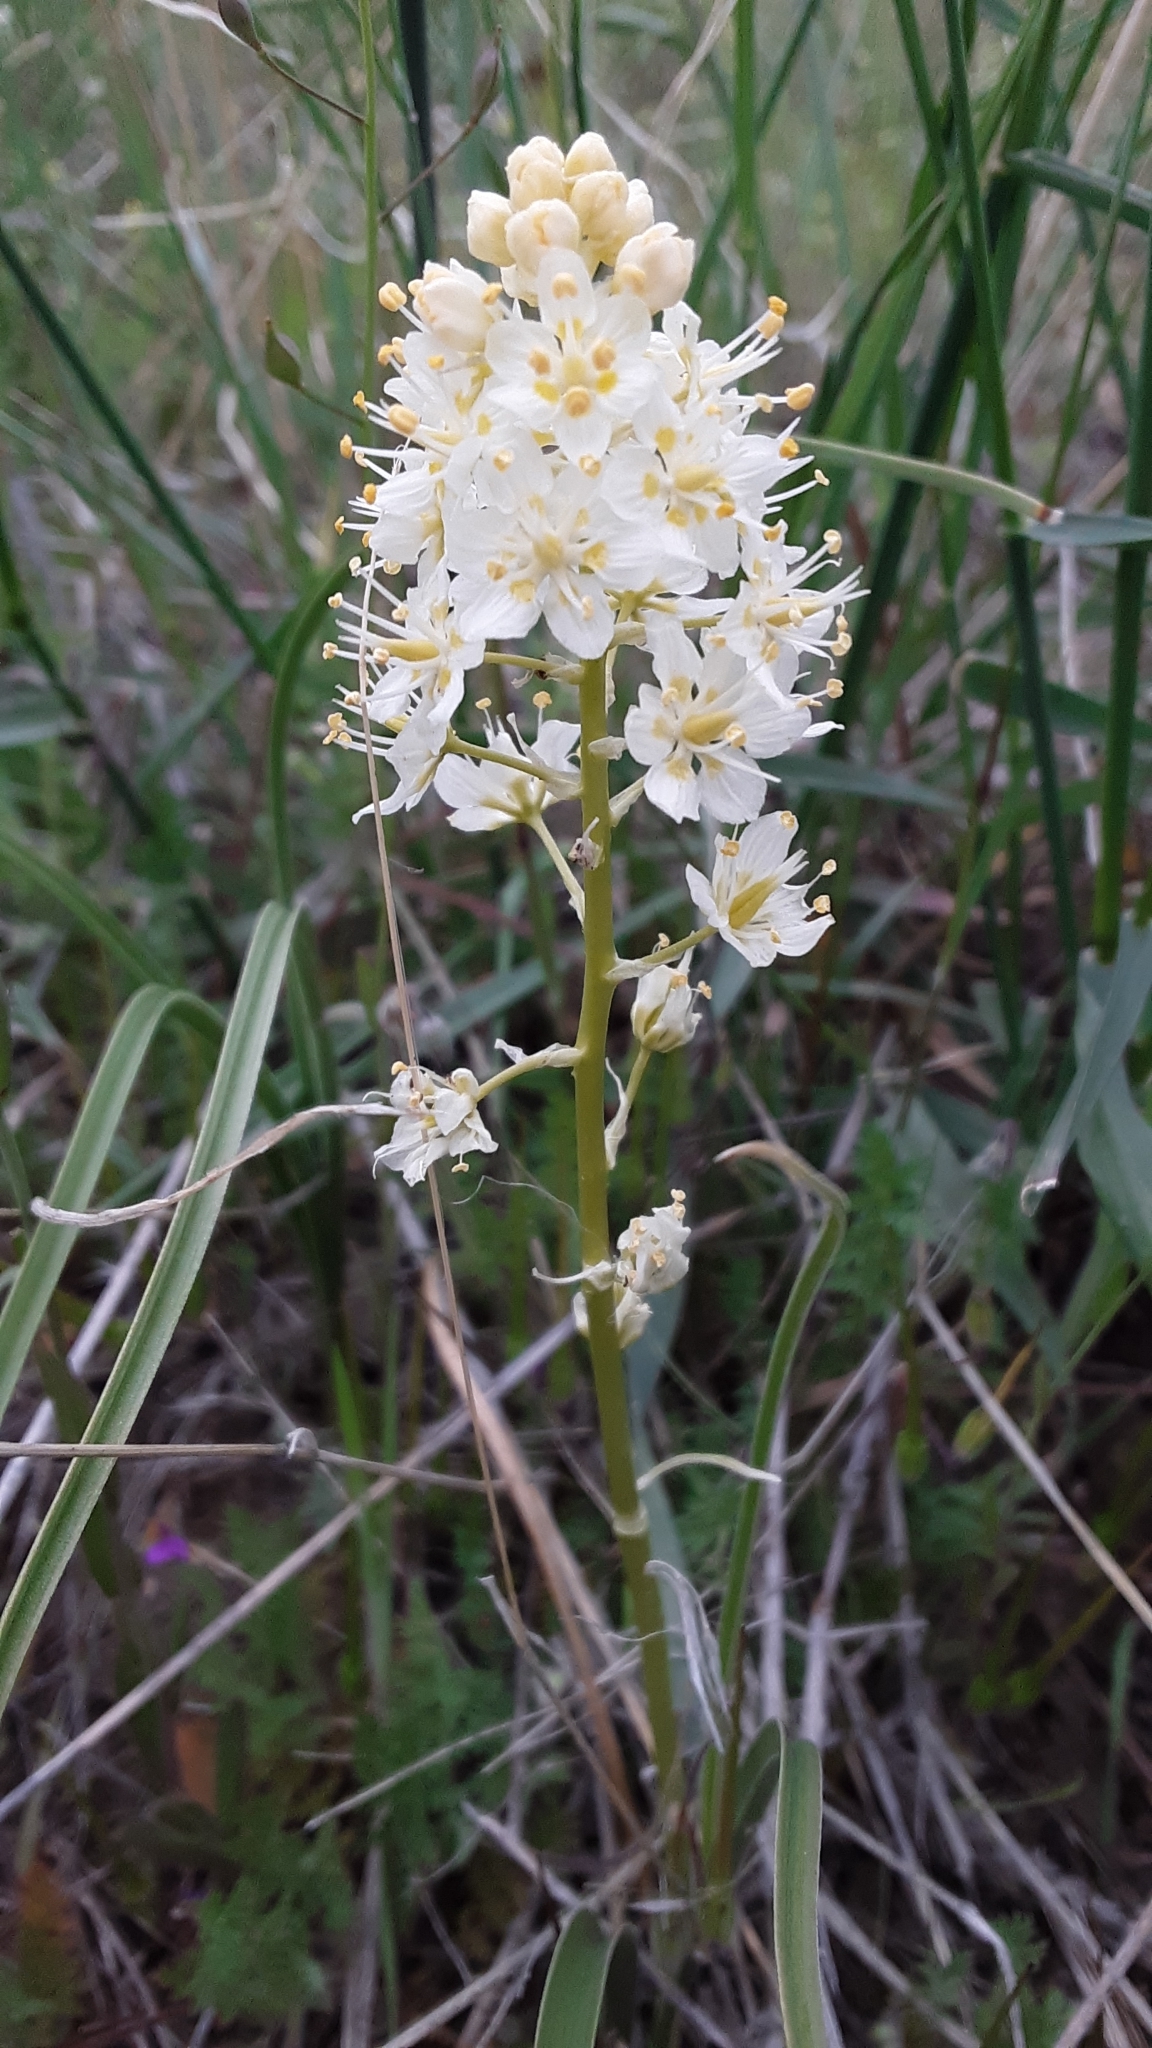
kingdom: Plantae
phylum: Tracheophyta
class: Liliopsida
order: Liliales
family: Melanthiaceae
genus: Toxicoscordion
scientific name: Toxicoscordion venenosum
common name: Meadow death camas
